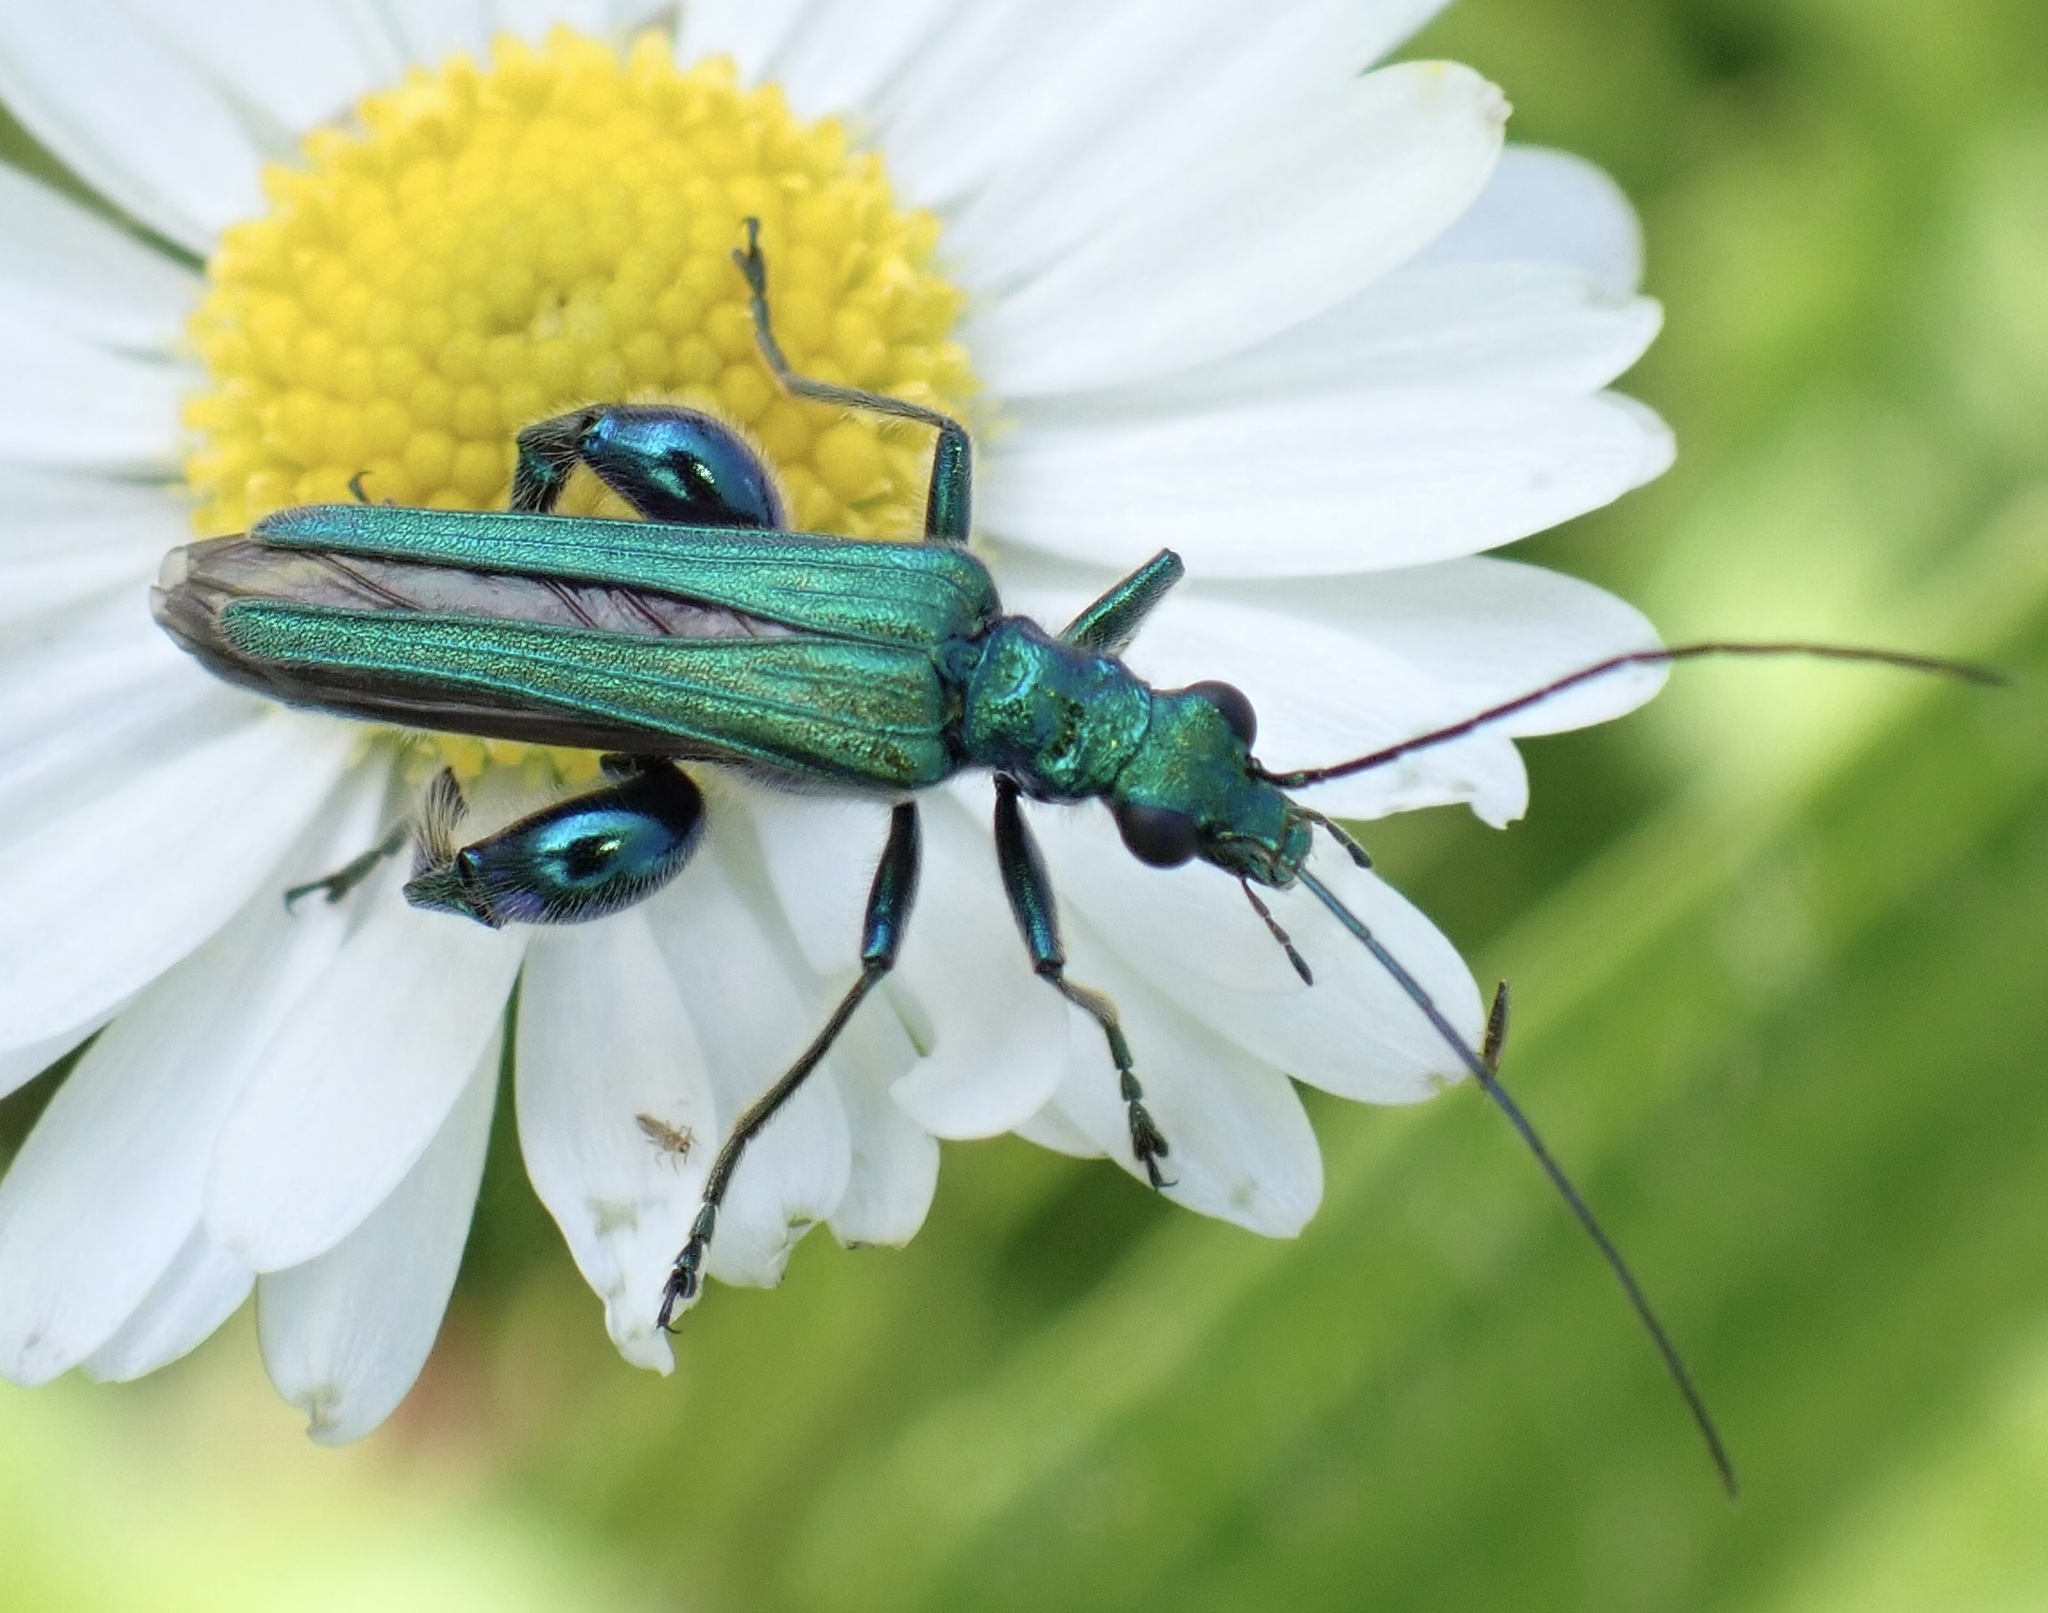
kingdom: Animalia
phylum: Arthropoda
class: Insecta
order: Coleoptera
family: Oedemeridae
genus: Oedemera
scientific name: Oedemera nobilis
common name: Swollen-thighed beetle
